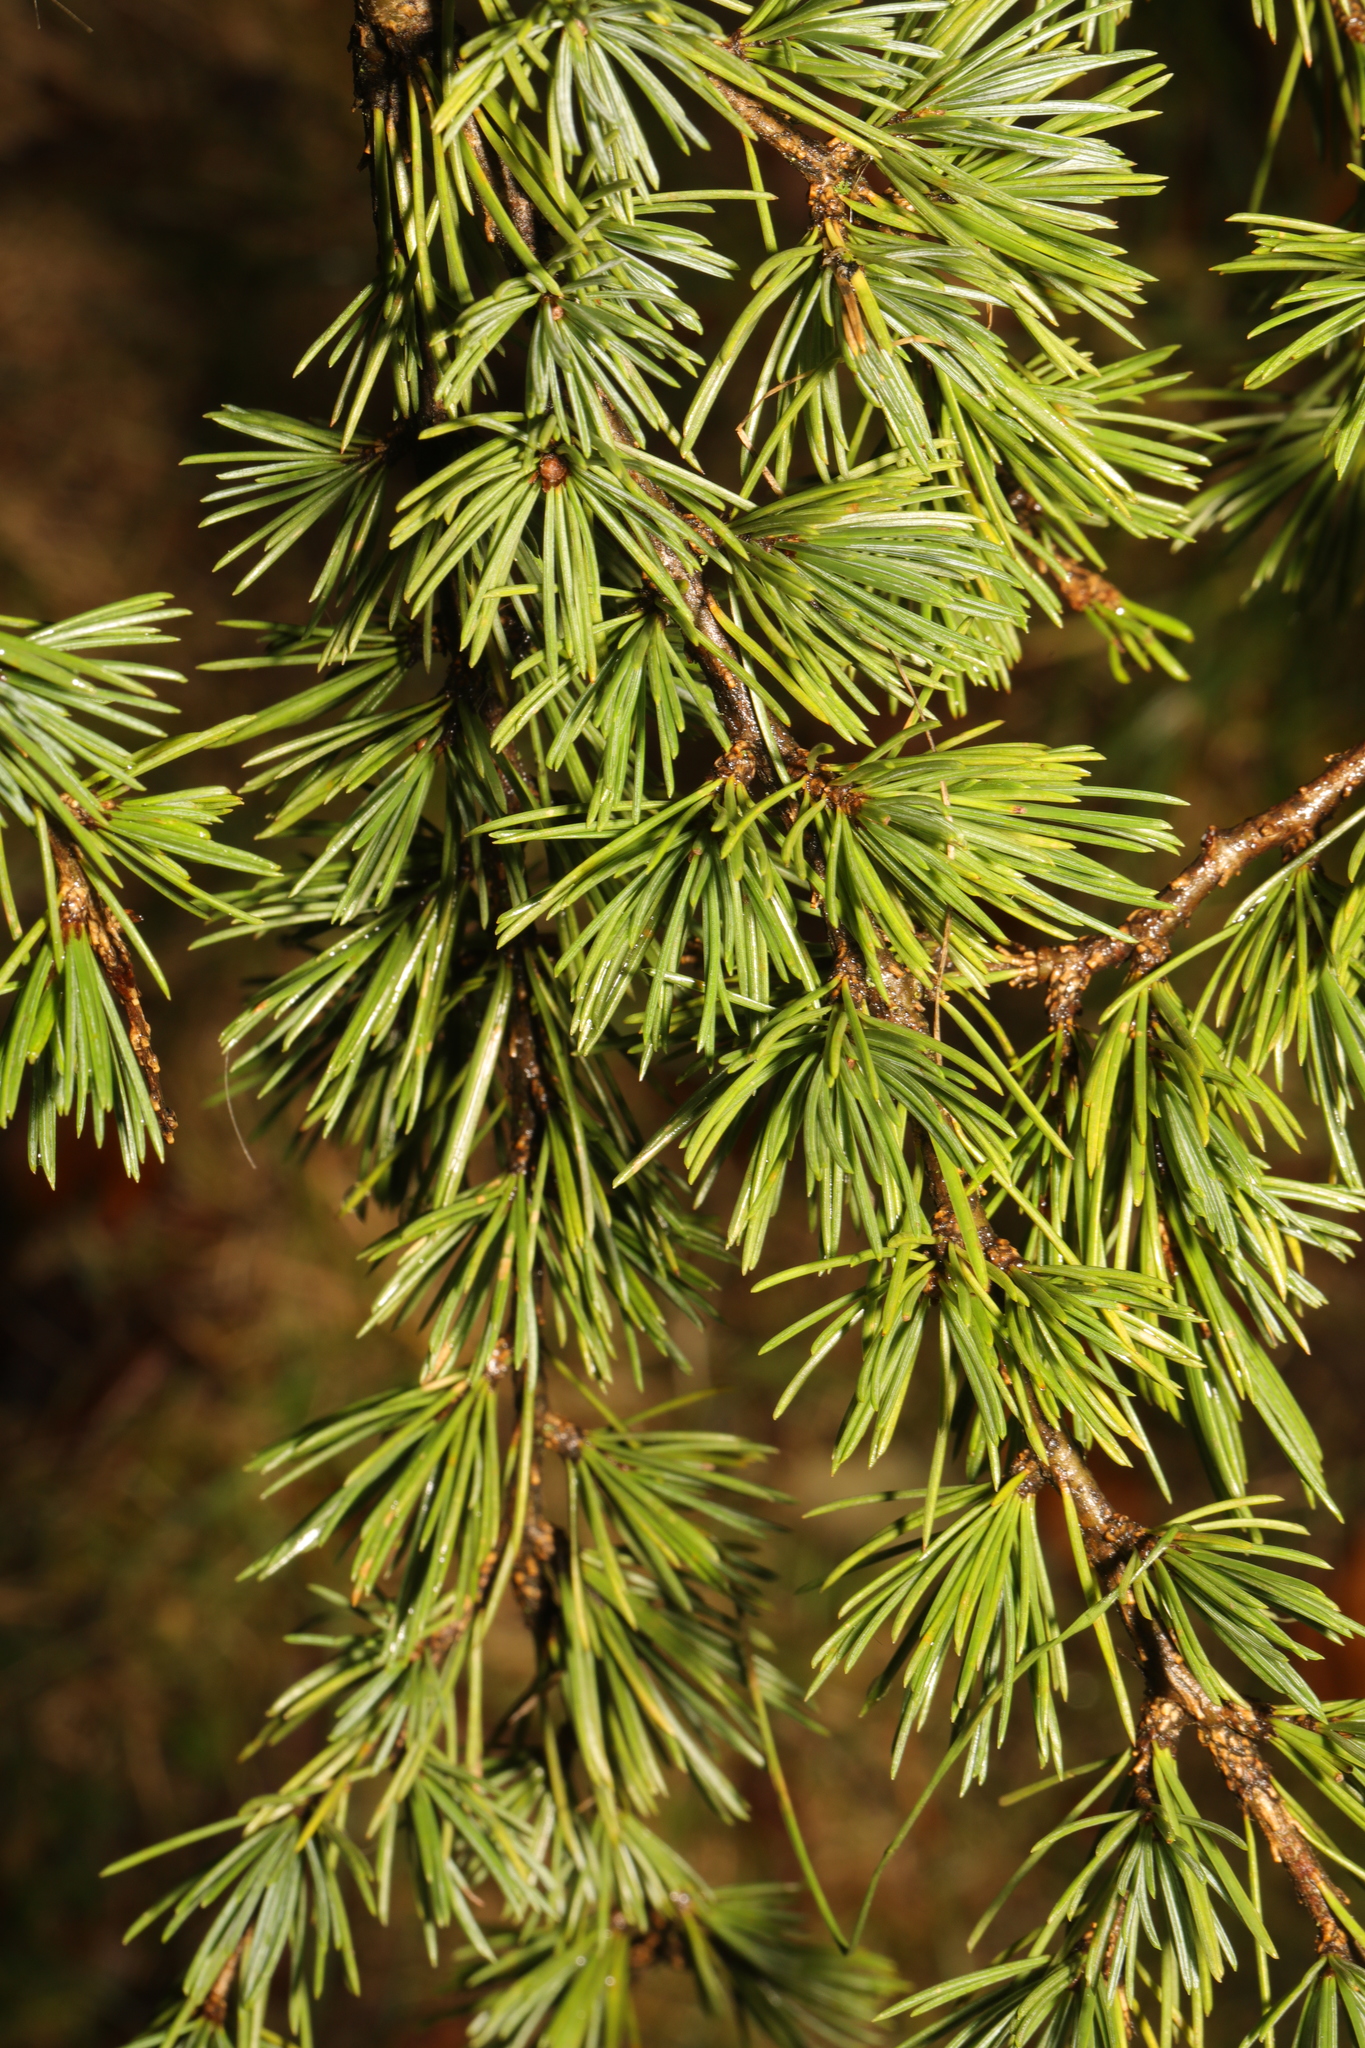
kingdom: Plantae
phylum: Tracheophyta
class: Pinopsida
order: Pinales
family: Pinaceae
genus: Cedrus
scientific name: Cedrus deodara
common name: Deodar
